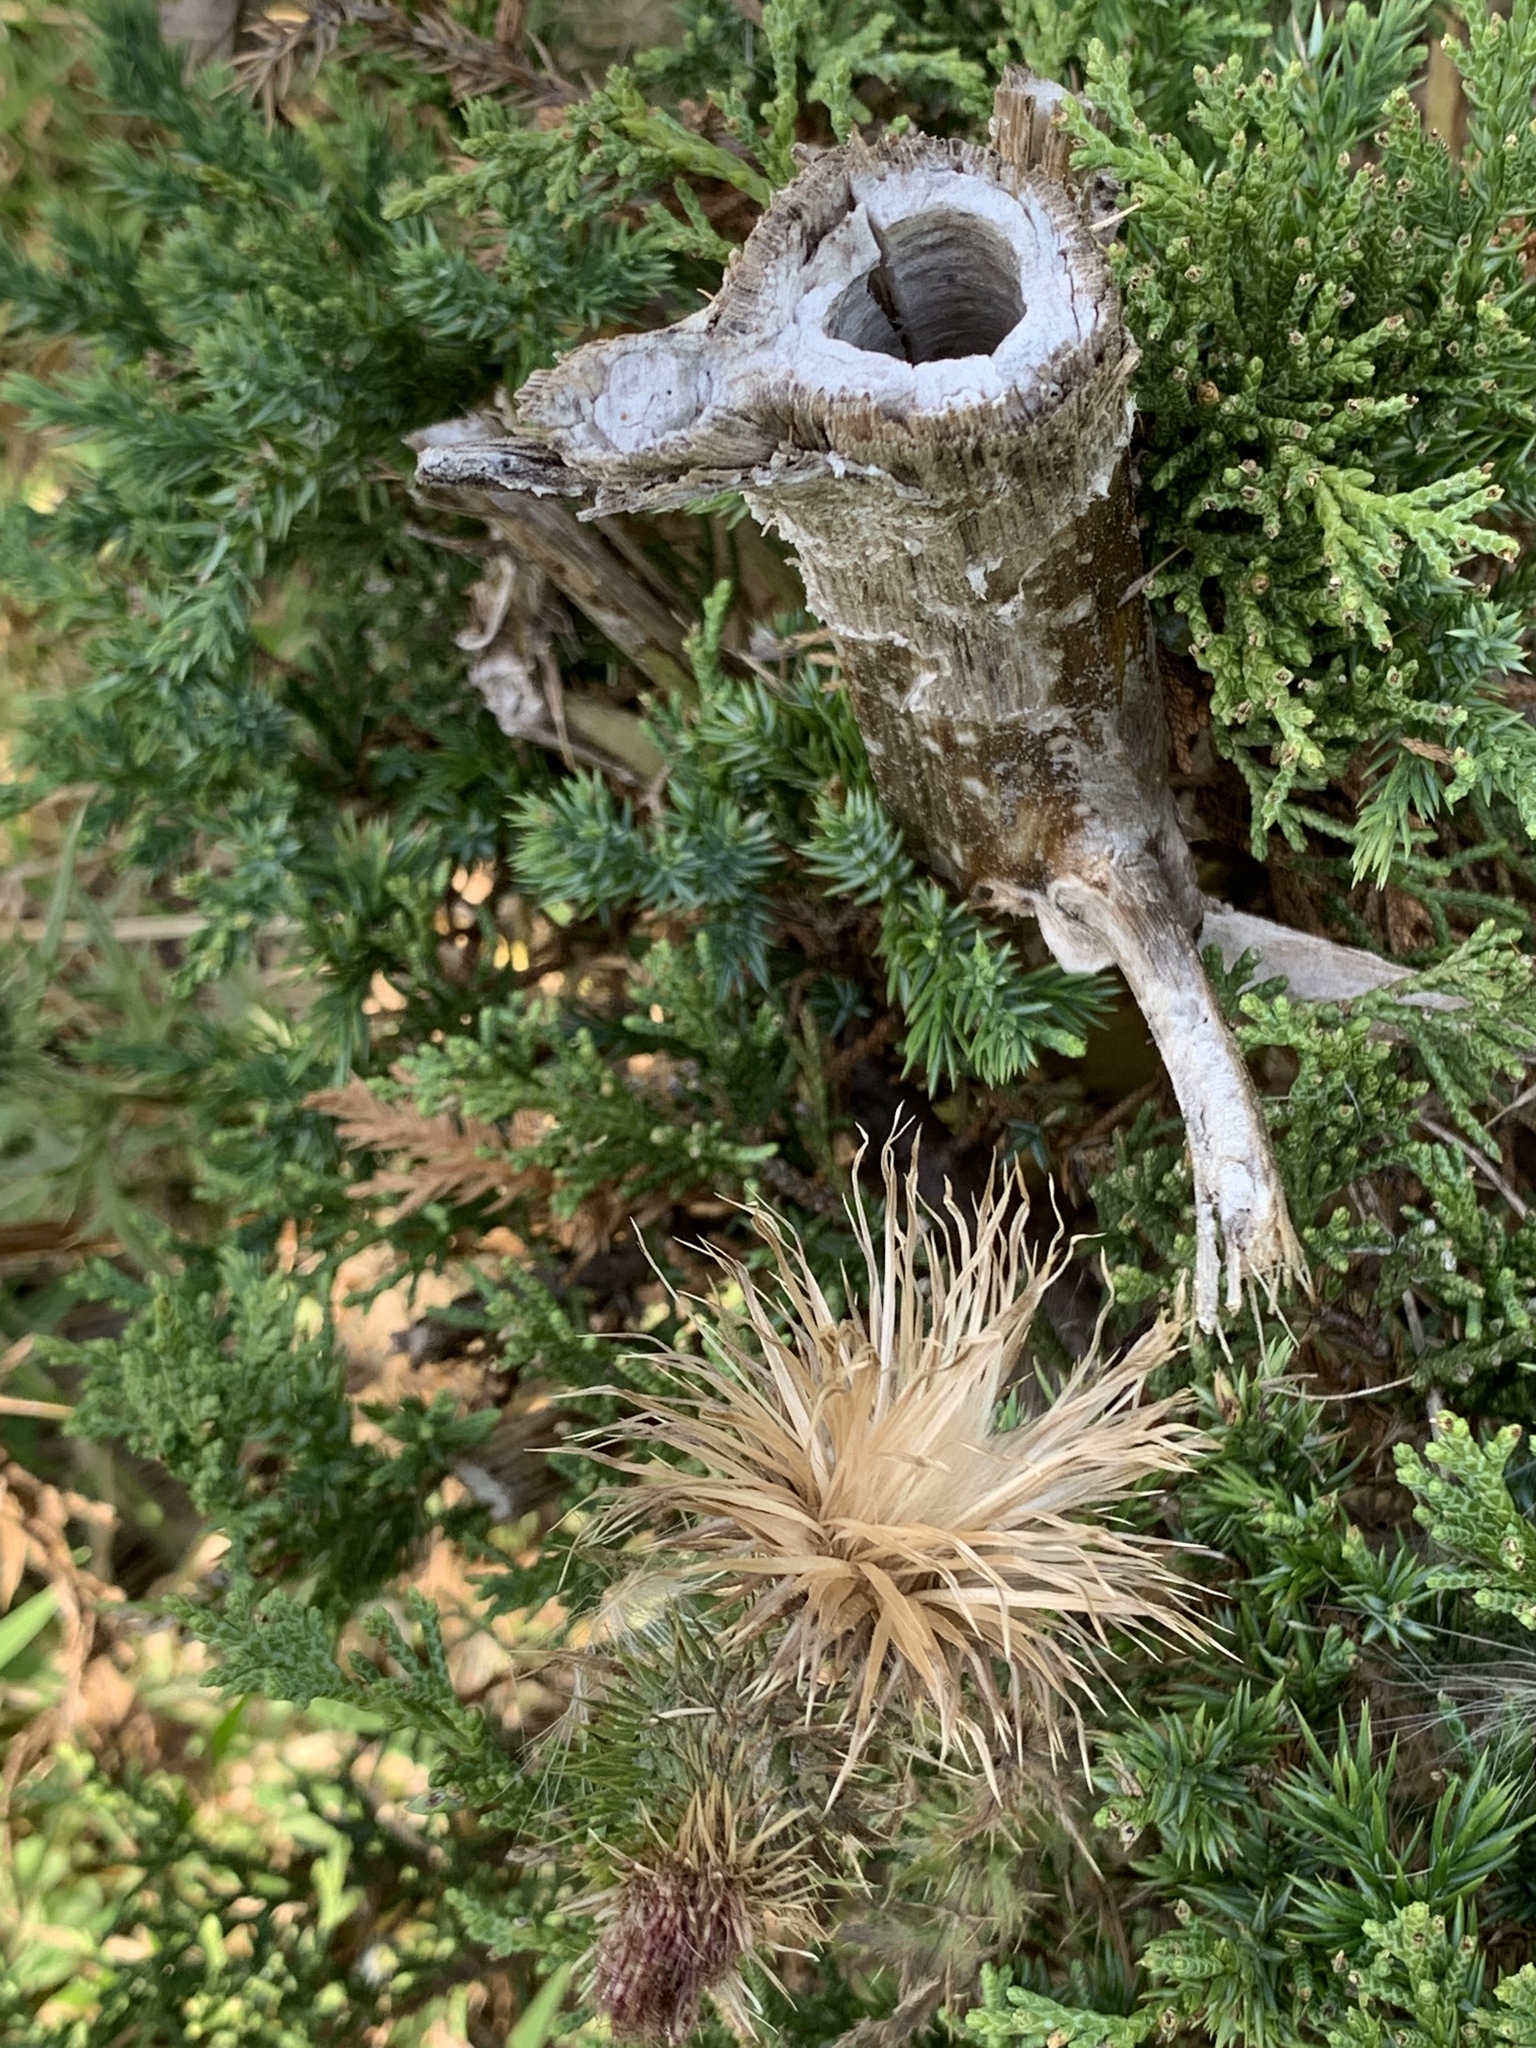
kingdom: Plantae
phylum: Tracheophyta
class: Magnoliopsida
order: Asterales
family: Asteraceae
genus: Cirsium
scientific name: Cirsium vulgare
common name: Bull thistle
